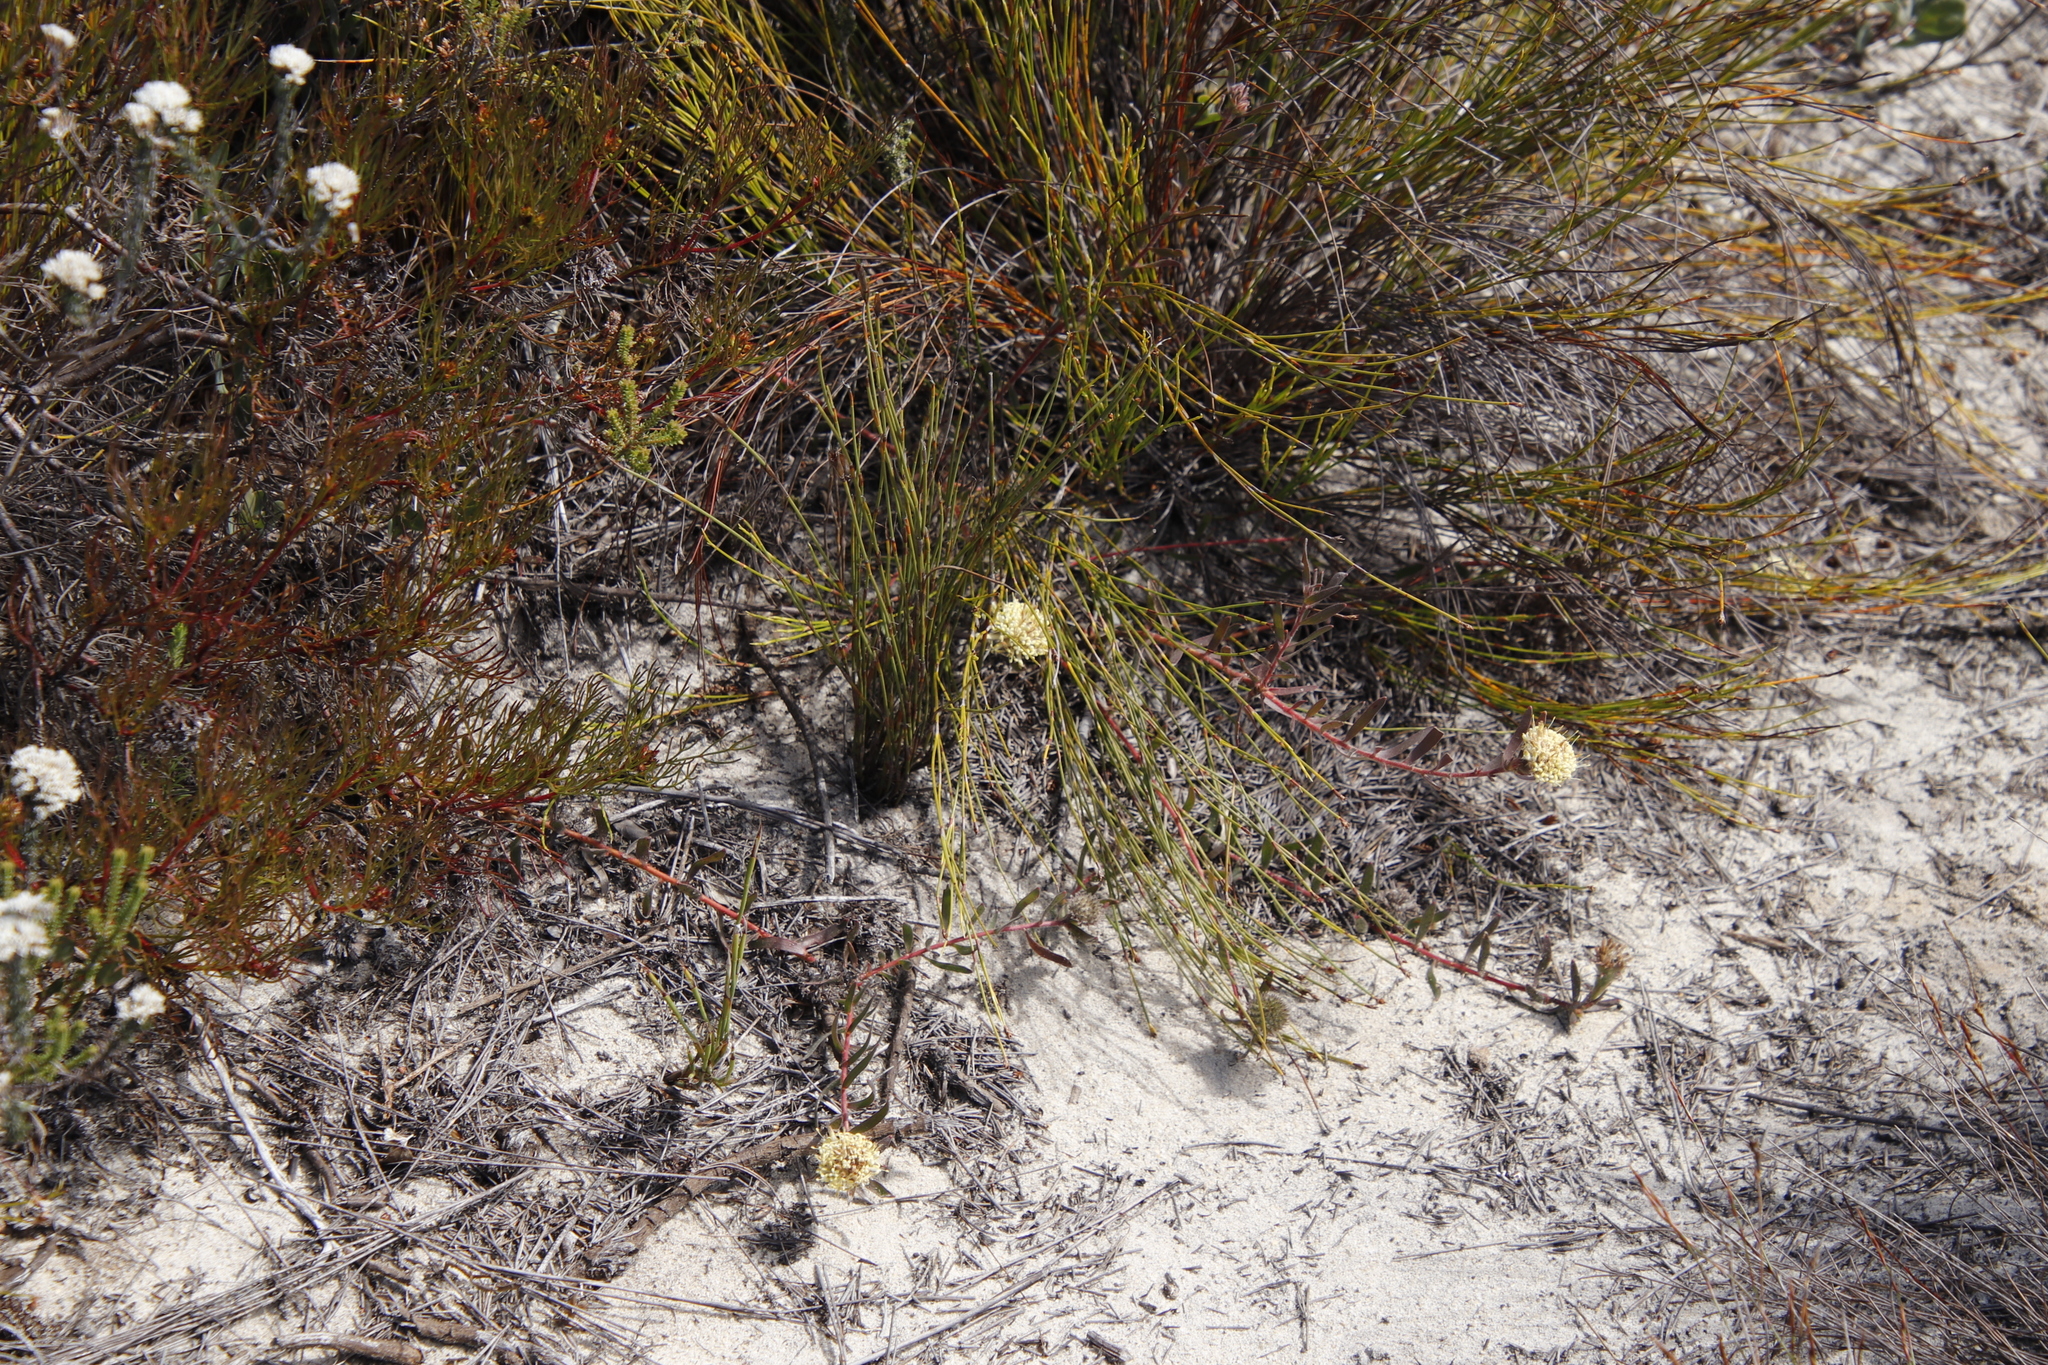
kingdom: Plantae
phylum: Tracheophyta
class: Magnoliopsida
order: Proteales
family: Proteaceae
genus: Leucospermum
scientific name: Leucospermum pedunculatum
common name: White-trailing pincushion
